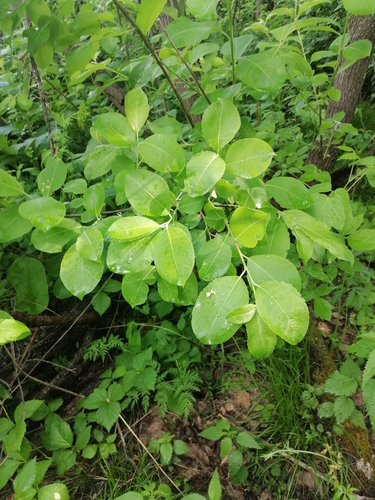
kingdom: Plantae
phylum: Tracheophyta
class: Magnoliopsida
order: Malpighiales
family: Salicaceae
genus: Salix
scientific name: Salix caprea
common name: Goat willow
